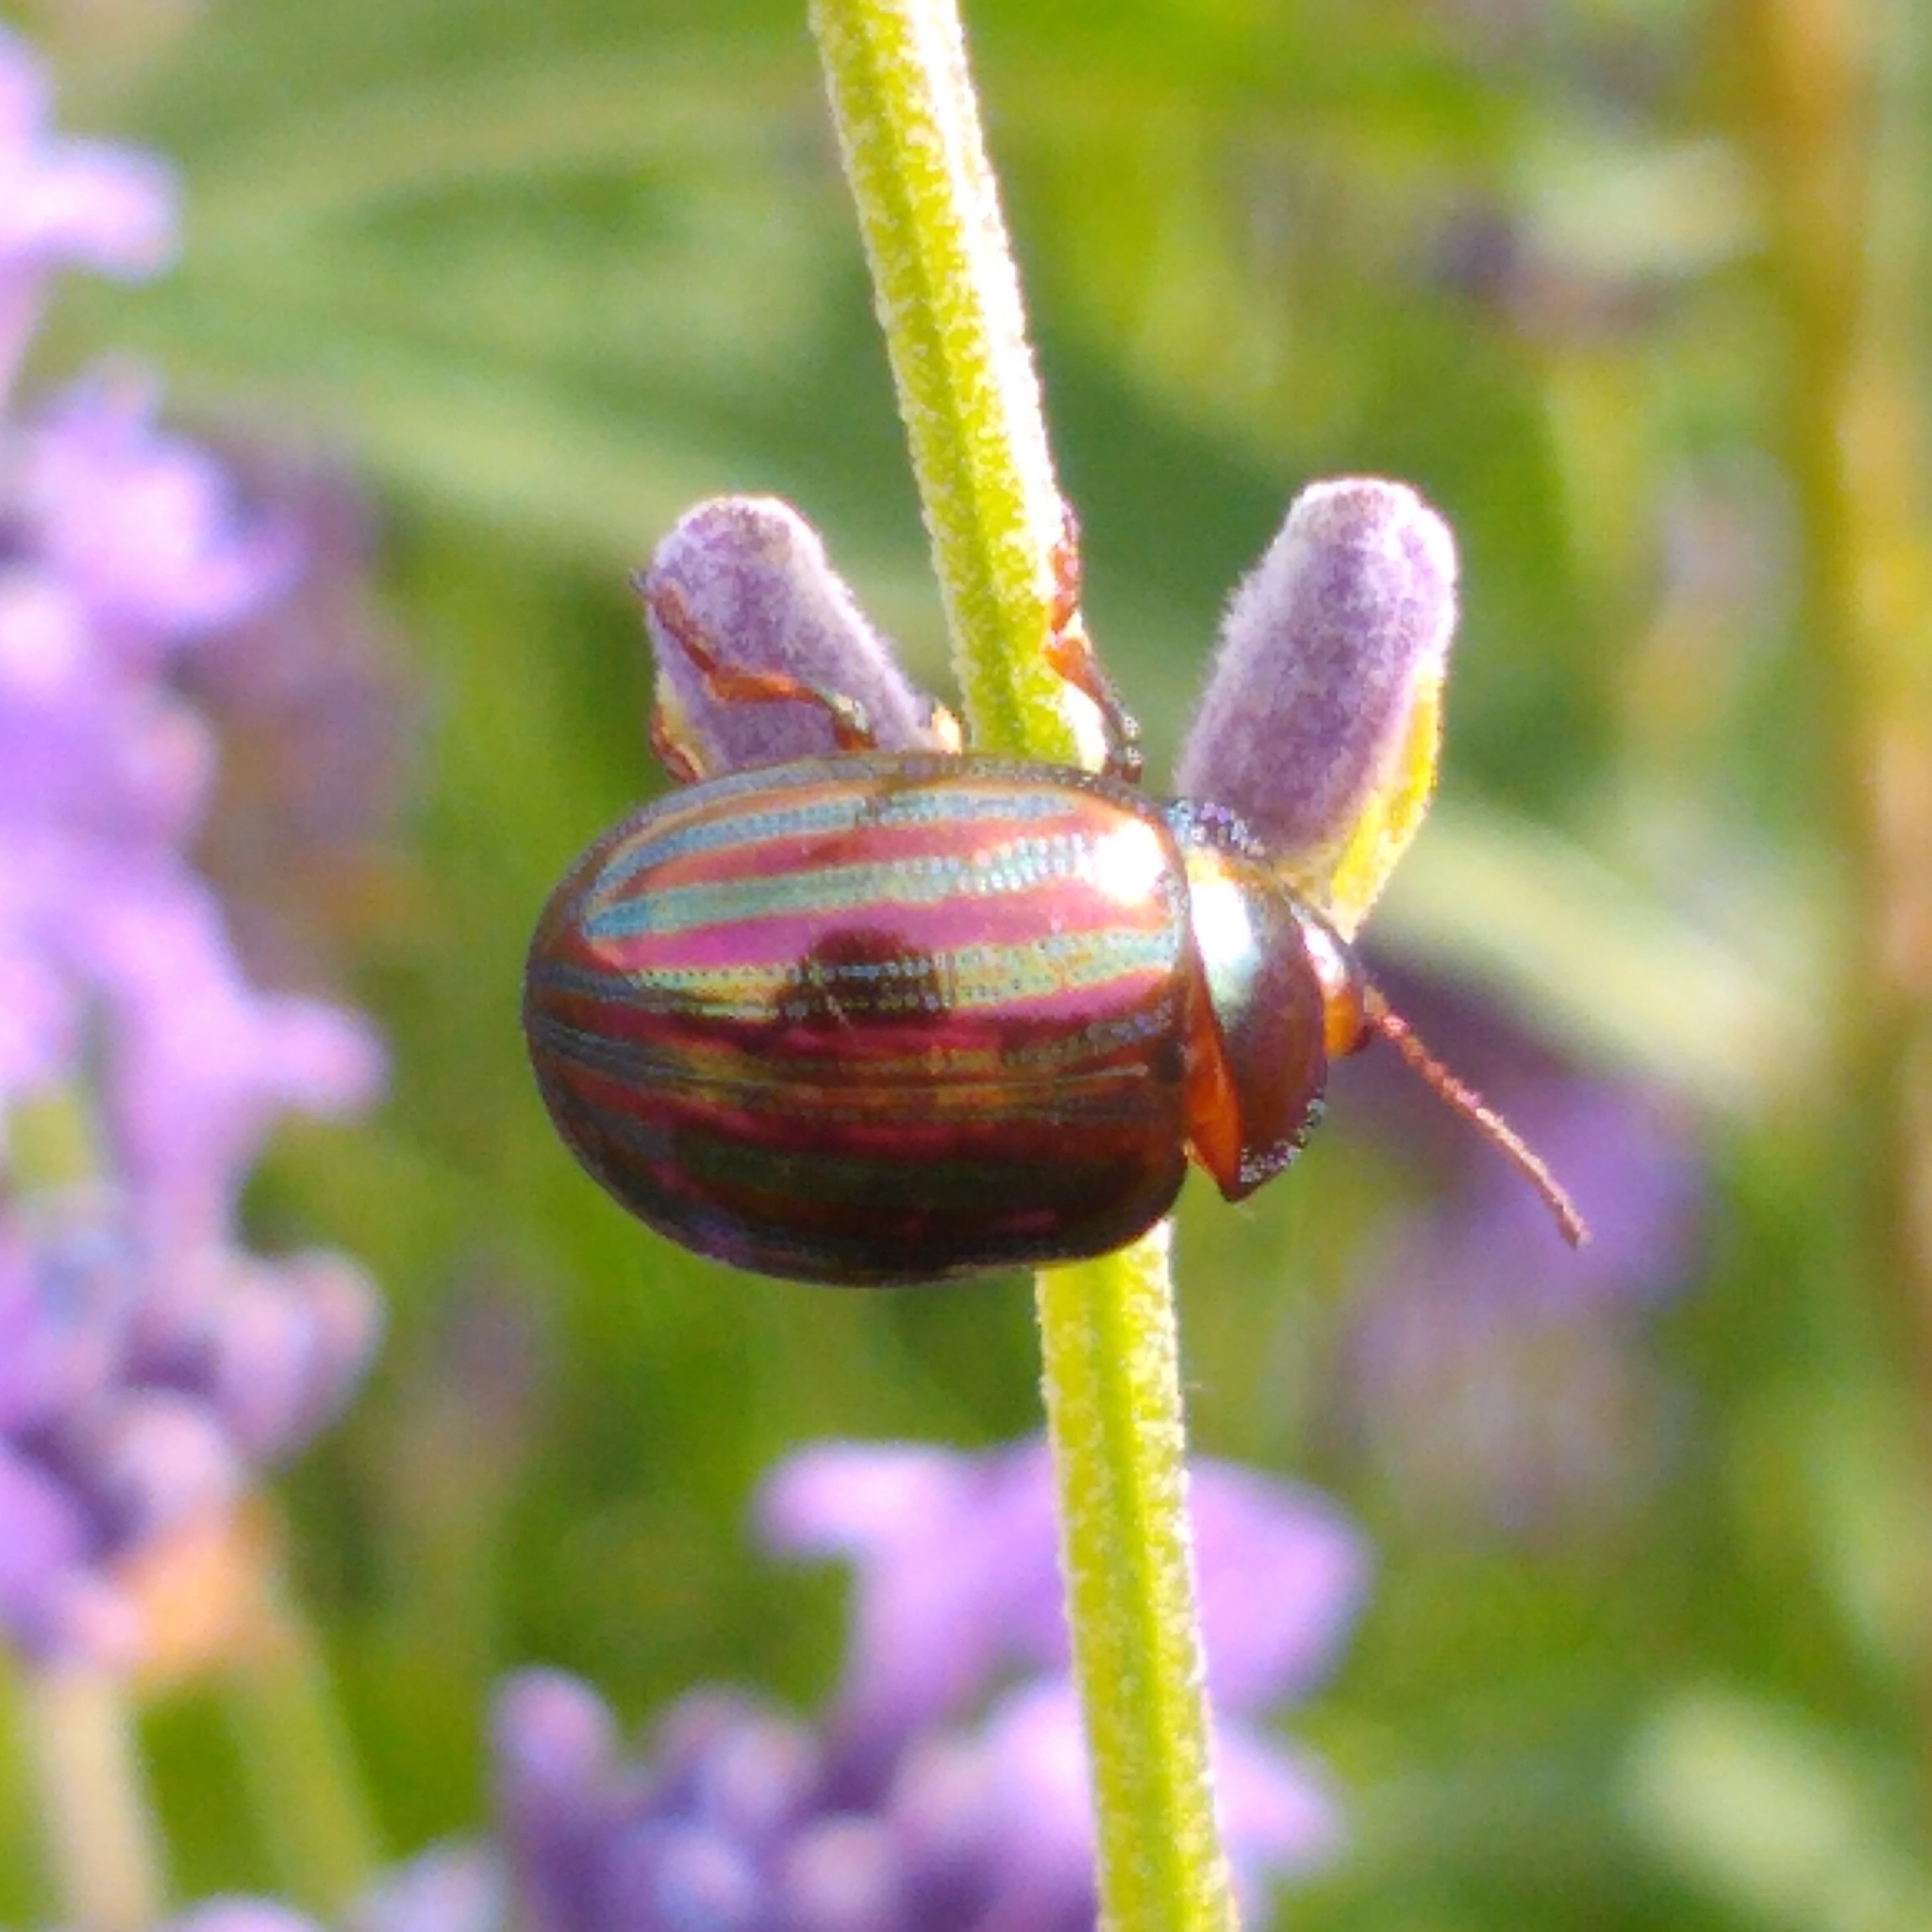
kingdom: Animalia
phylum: Arthropoda
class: Insecta
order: Coleoptera
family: Chrysomelidae
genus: Chrysolina
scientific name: Chrysolina americana
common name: Rosemary beetle
